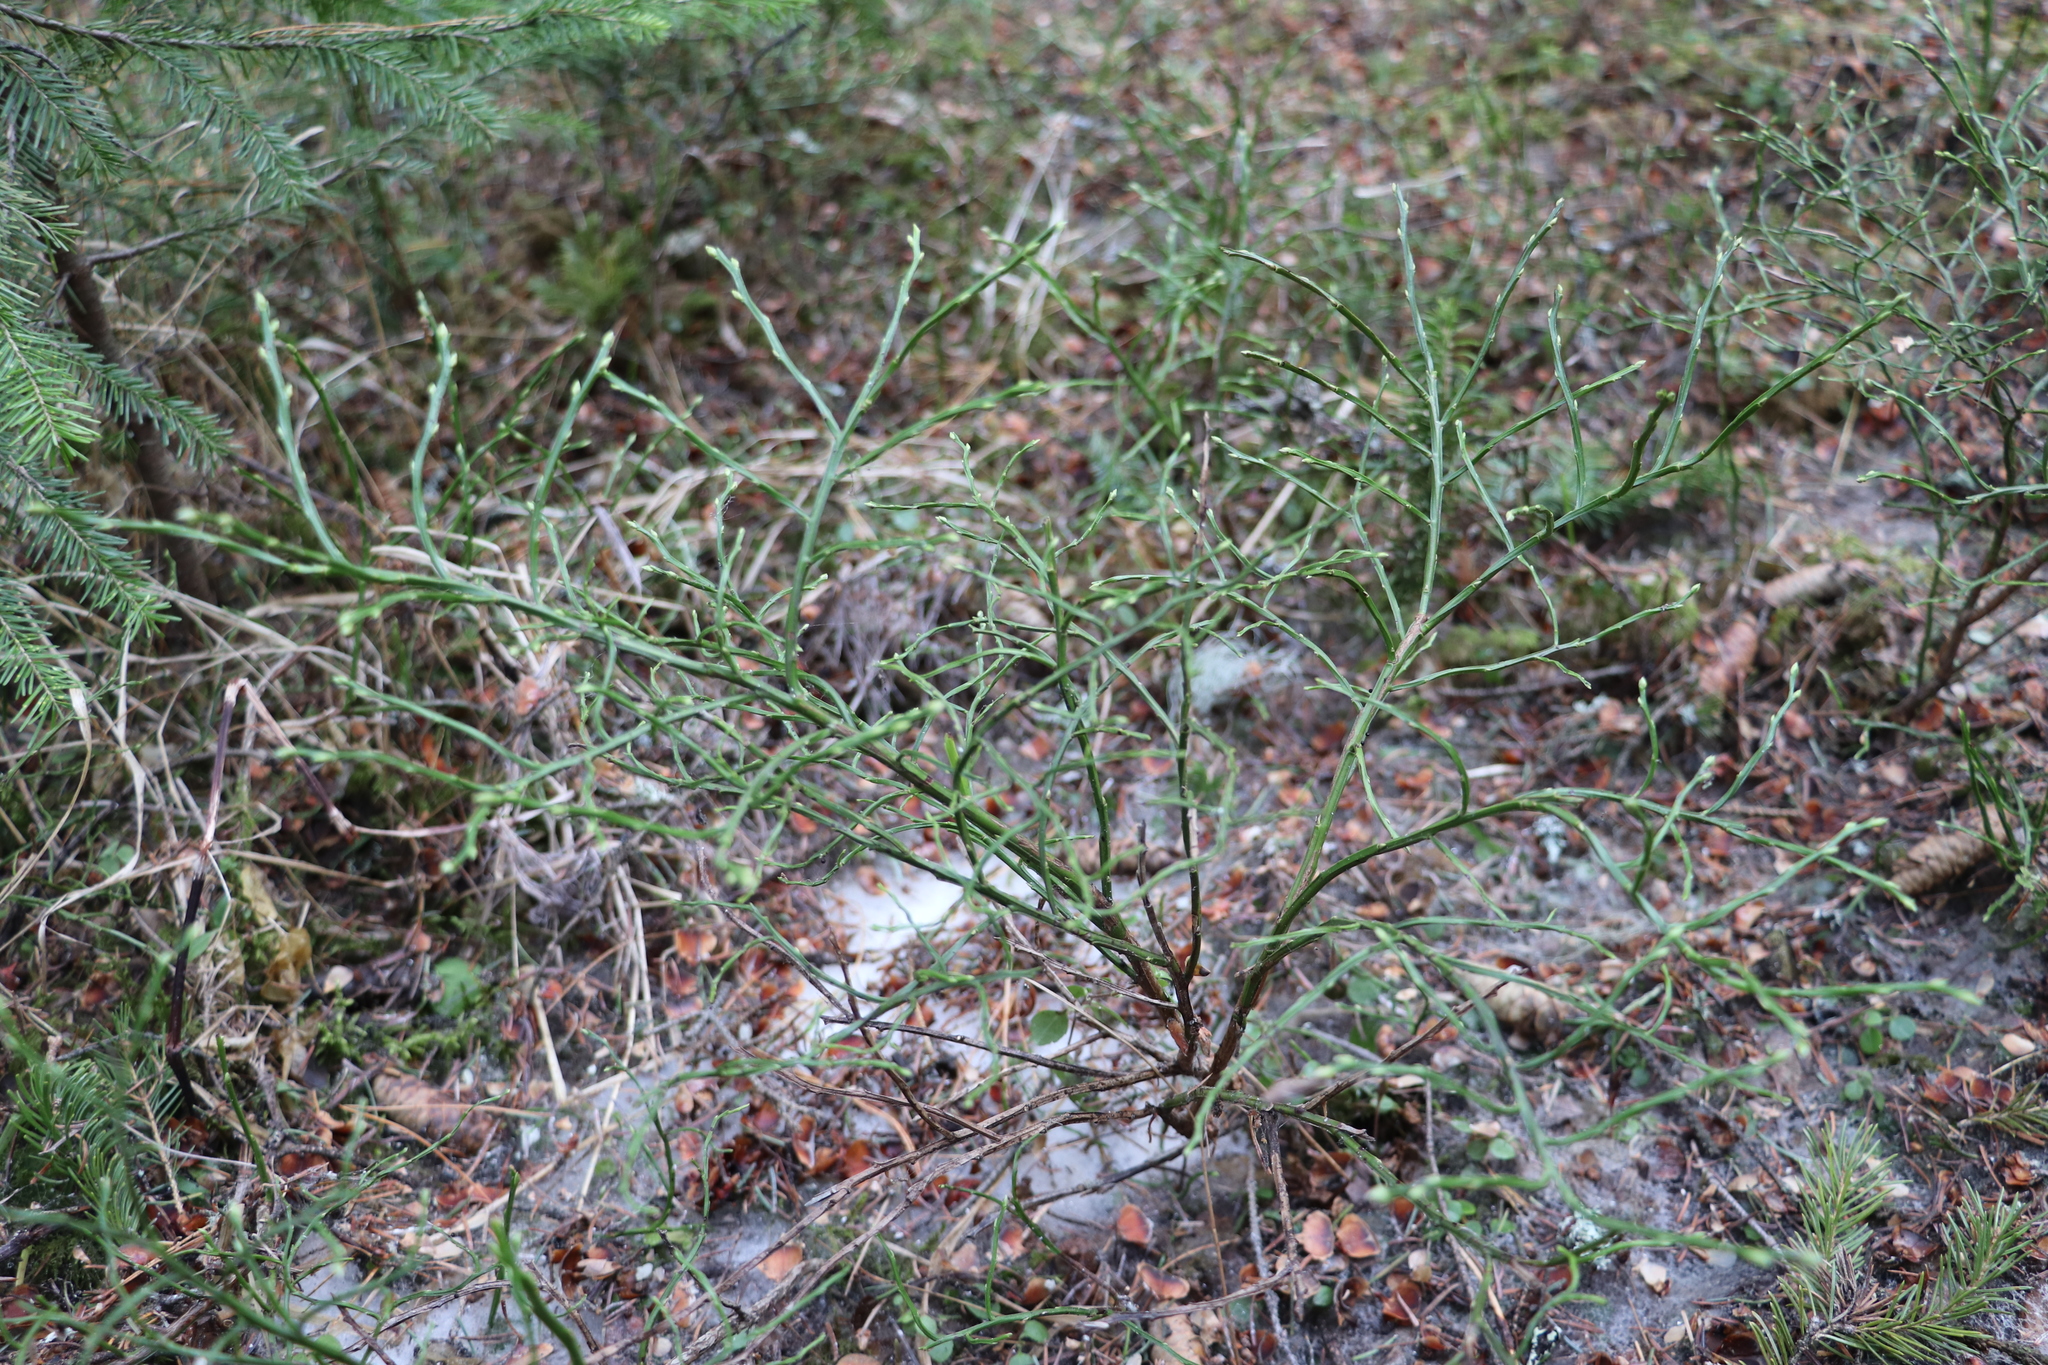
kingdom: Plantae
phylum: Tracheophyta
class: Magnoliopsida
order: Ericales
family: Ericaceae
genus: Vaccinium
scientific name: Vaccinium myrtillus
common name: Bilberry
